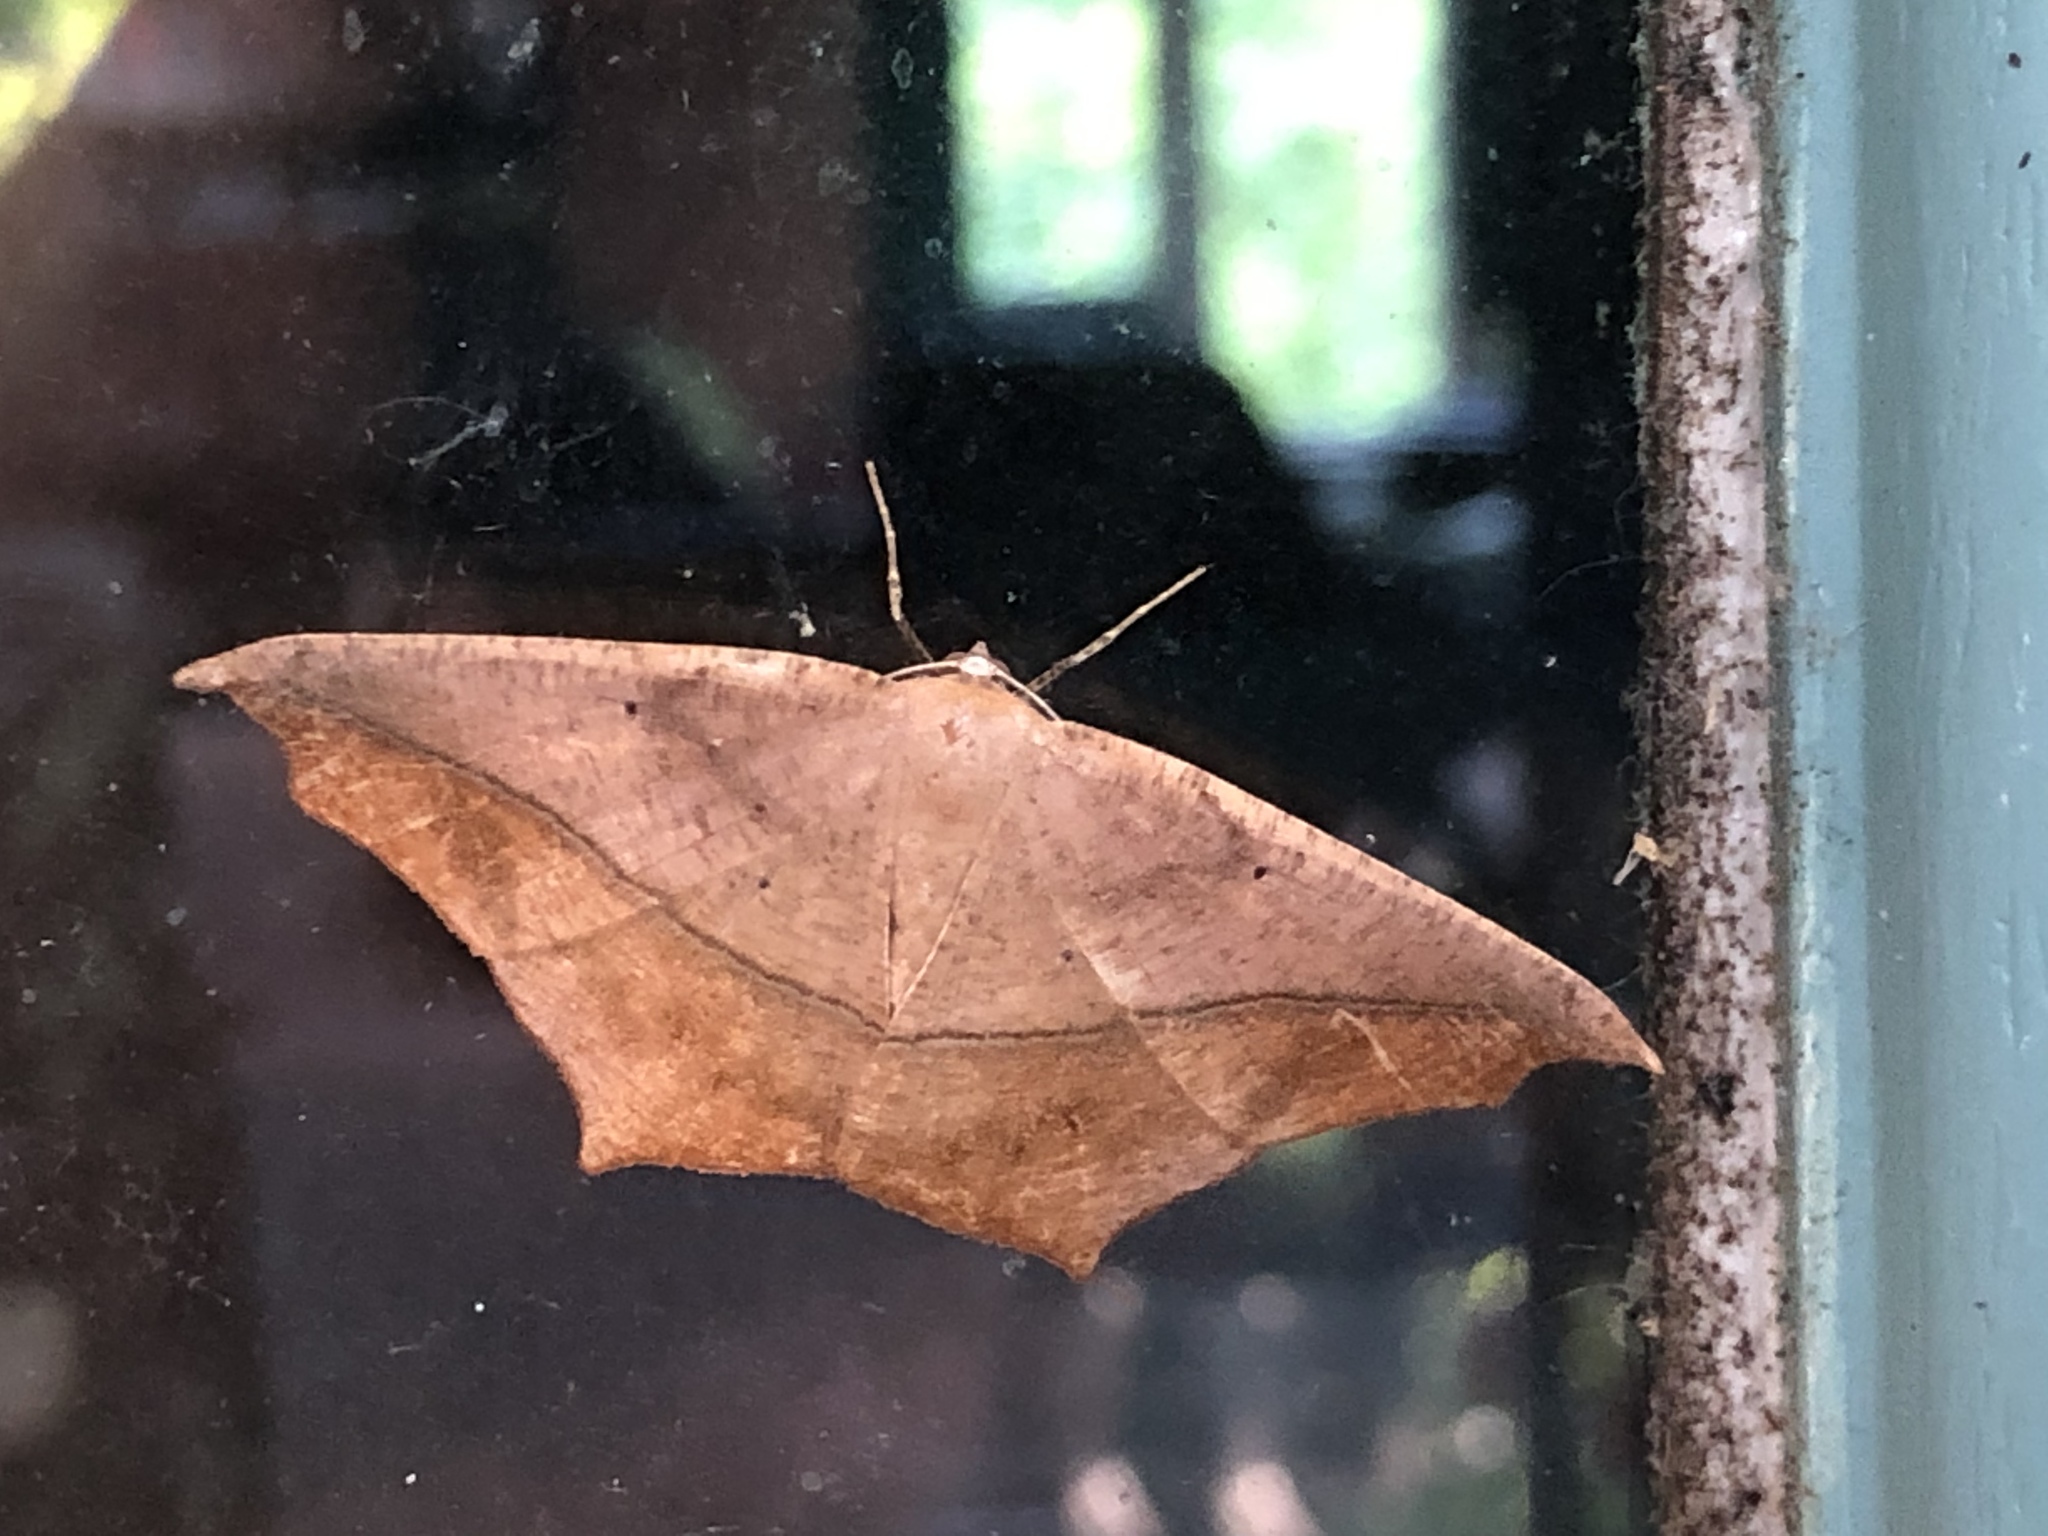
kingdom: Animalia
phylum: Arthropoda
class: Insecta
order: Lepidoptera
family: Geometridae
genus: Prochoerodes
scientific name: Prochoerodes lineola
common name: Large maple spanworm
